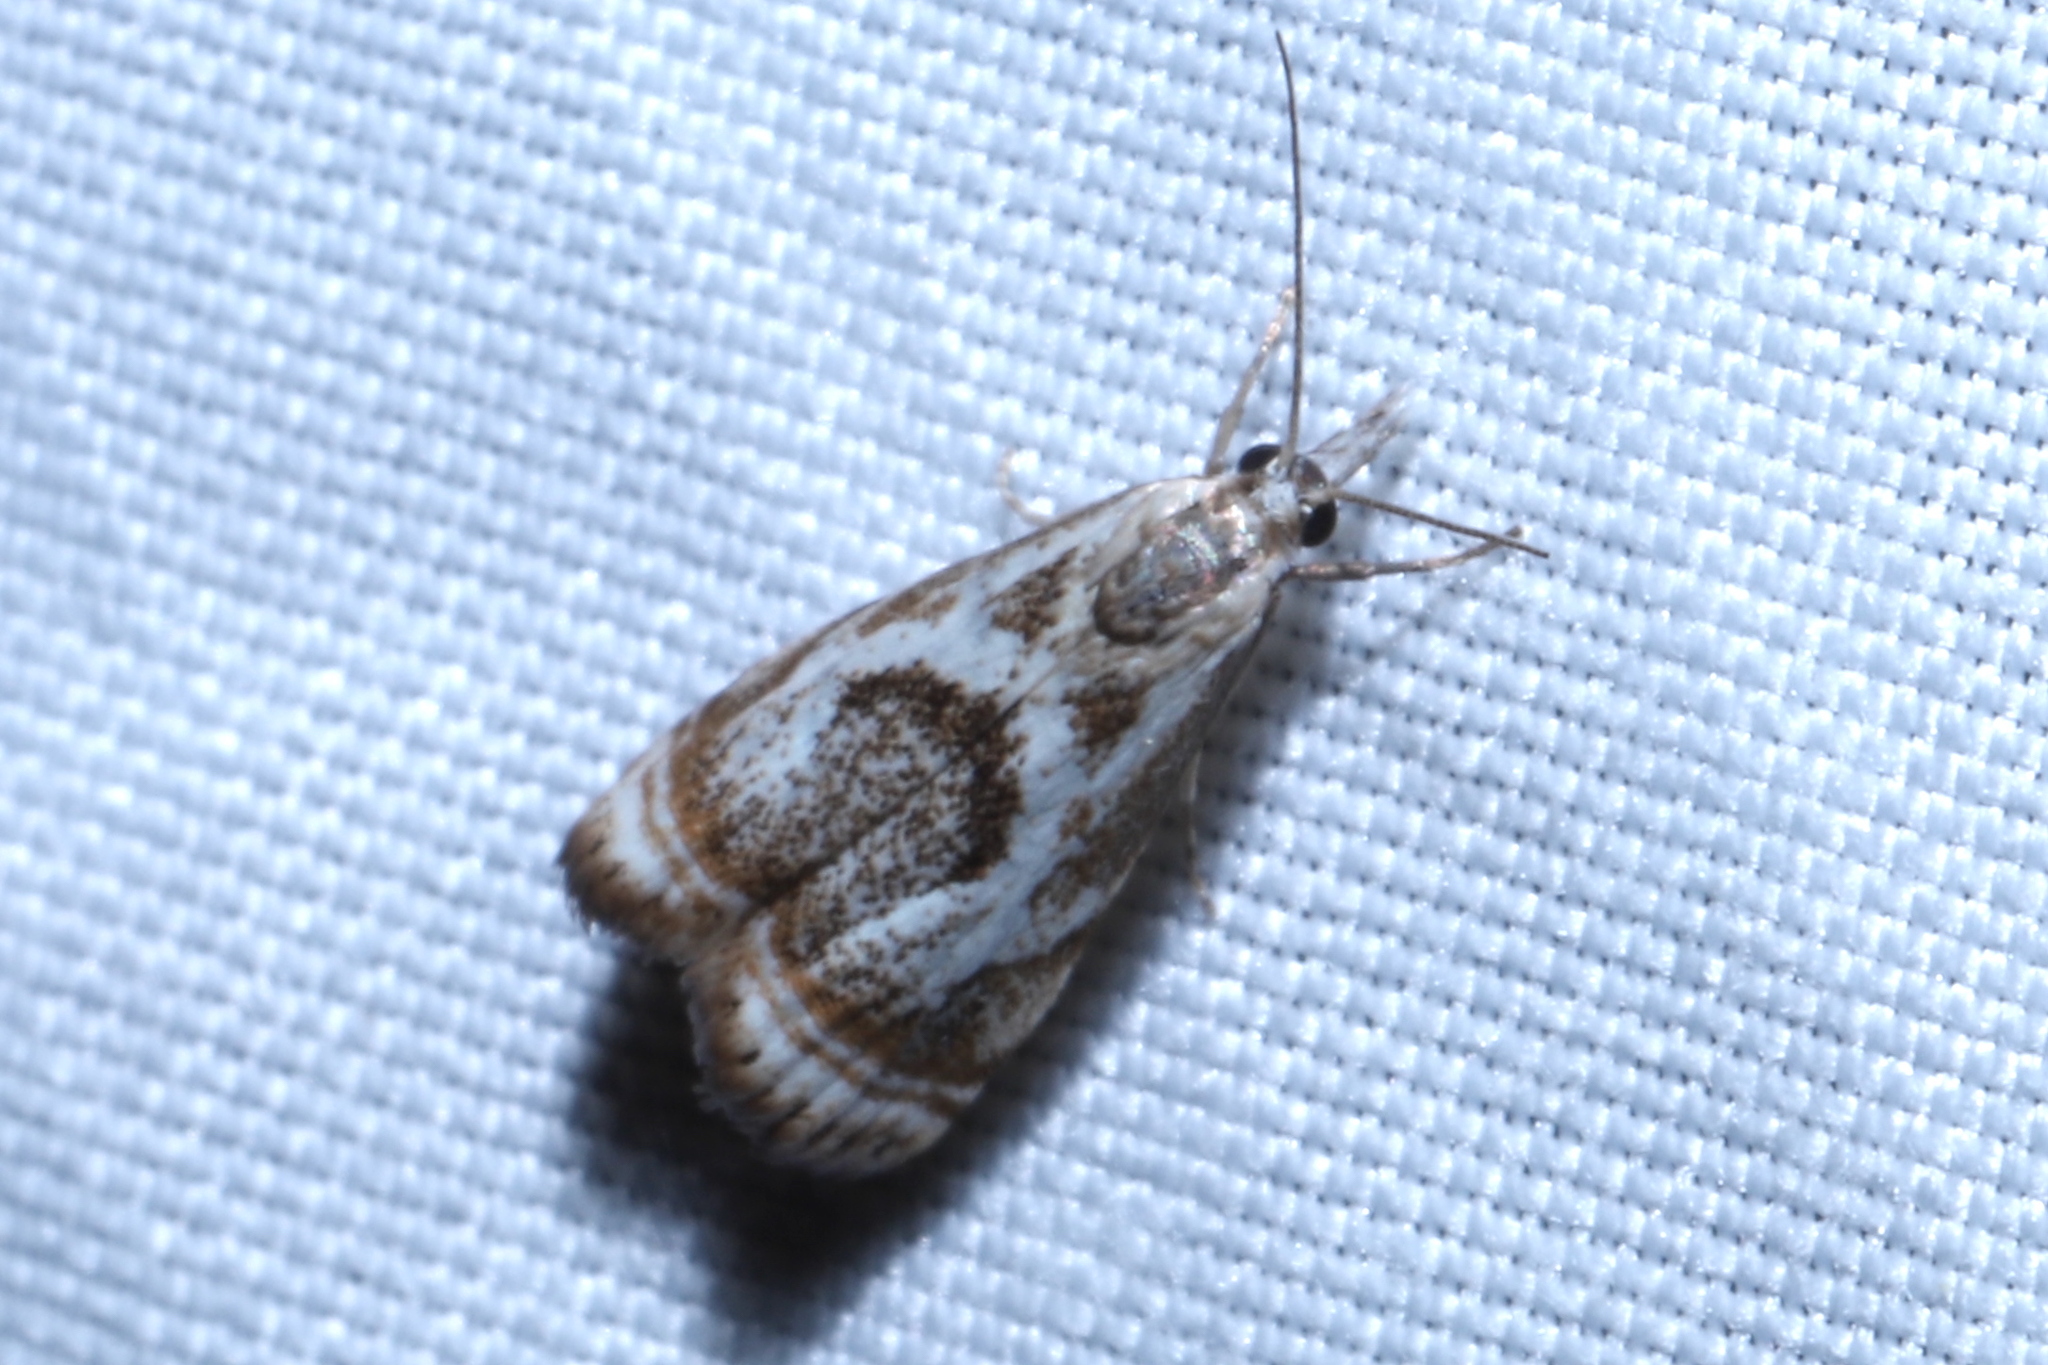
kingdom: Animalia
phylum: Arthropoda
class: Insecta
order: Lepidoptera
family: Crambidae
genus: Microcrambus
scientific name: Microcrambus elegans
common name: Elegant grass-veneer
